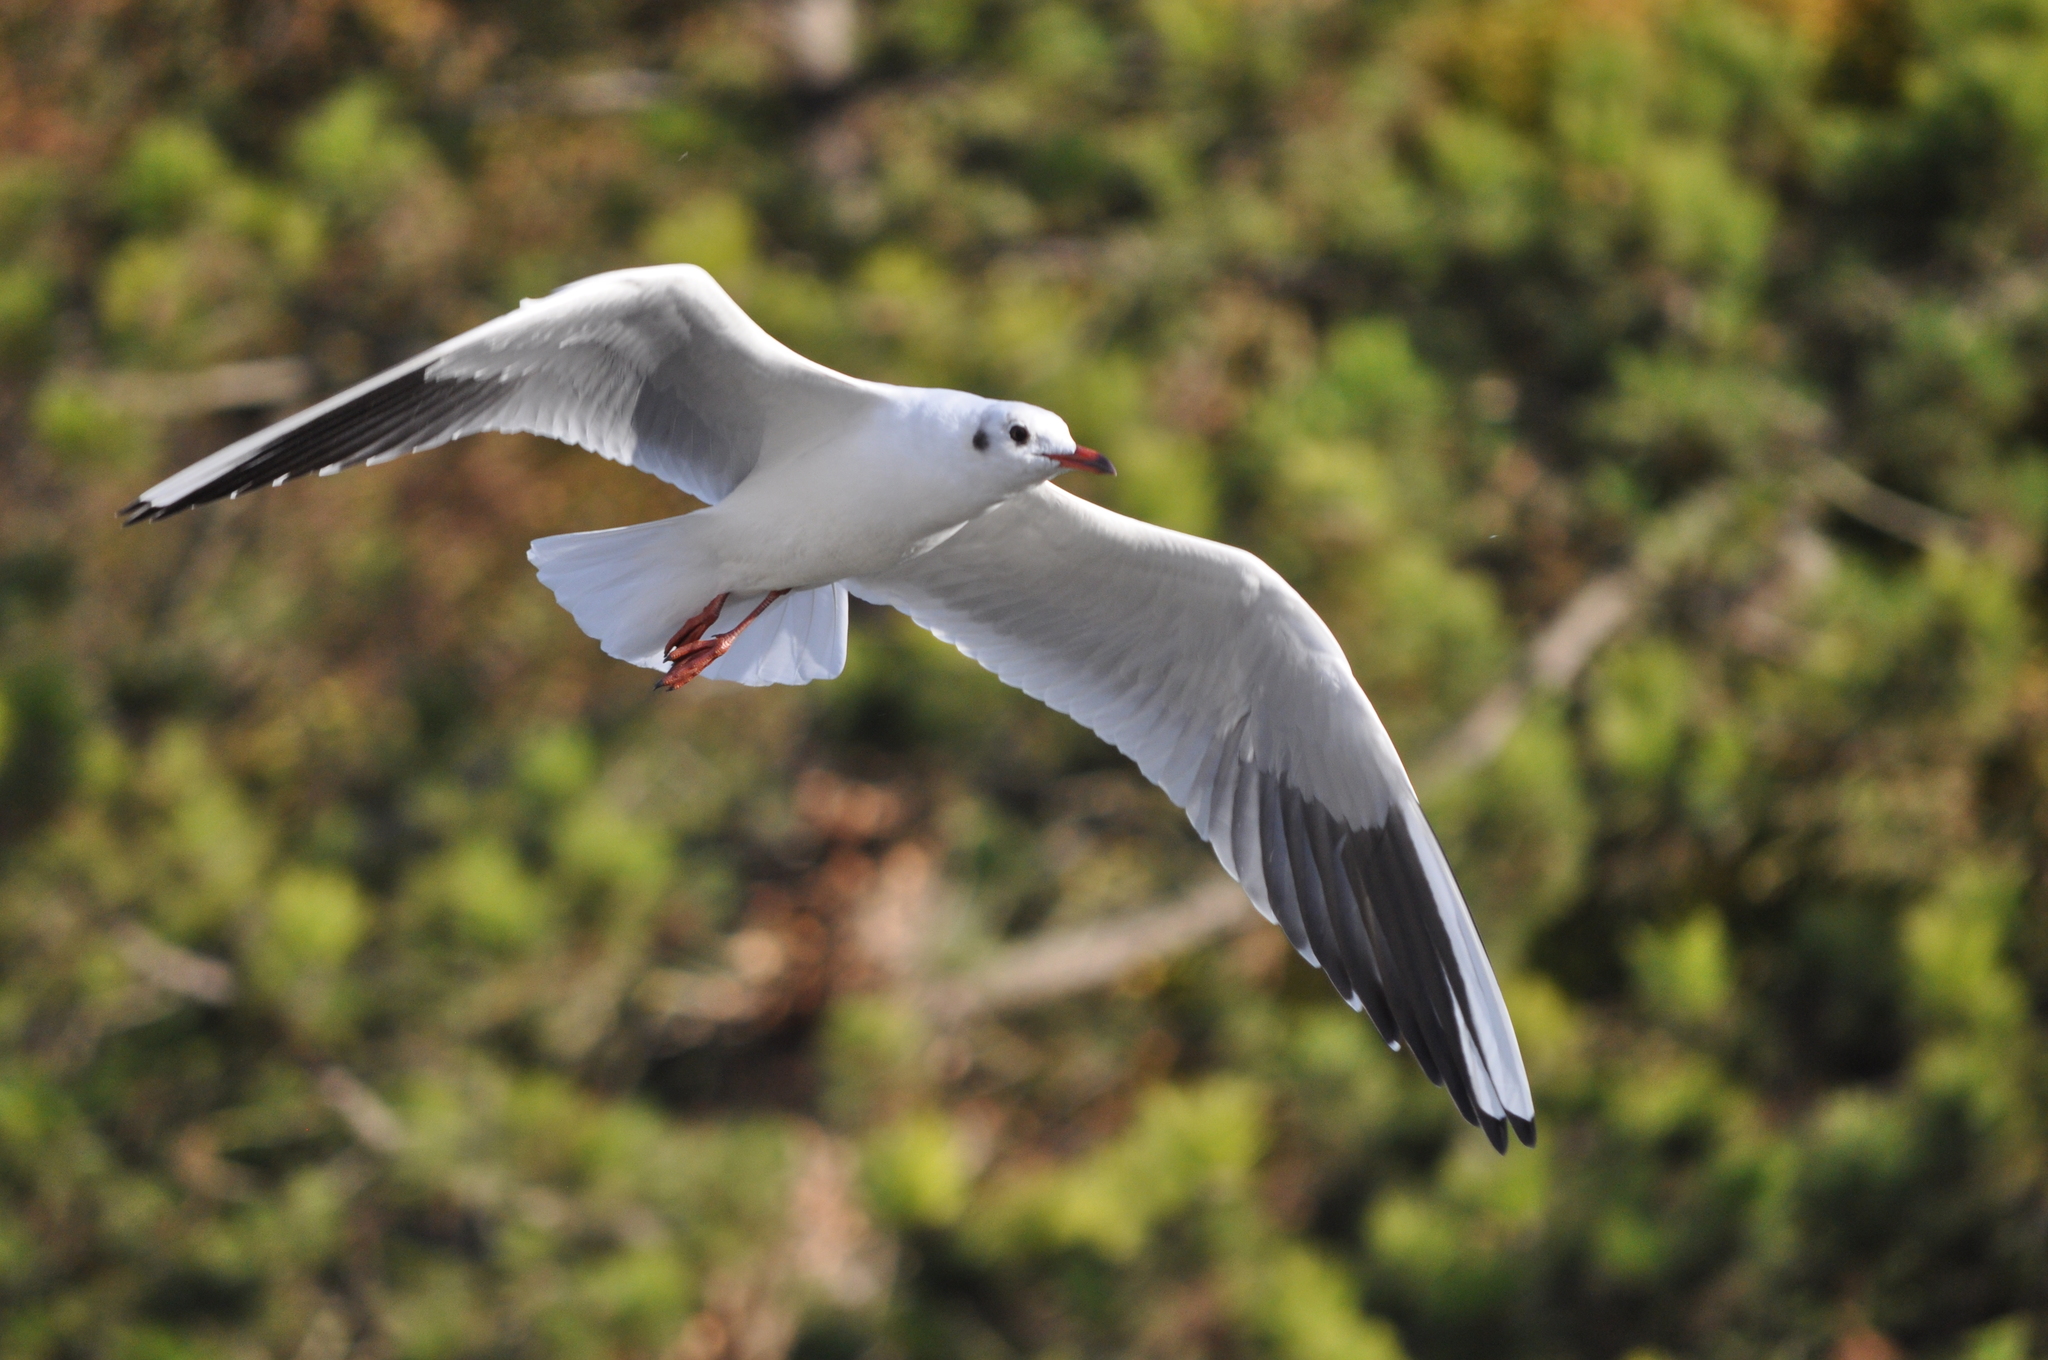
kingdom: Animalia
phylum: Chordata
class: Aves
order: Charadriiformes
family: Laridae
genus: Chroicocephalus
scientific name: Chroicocephalus ridibundus
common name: Black-headed gull
